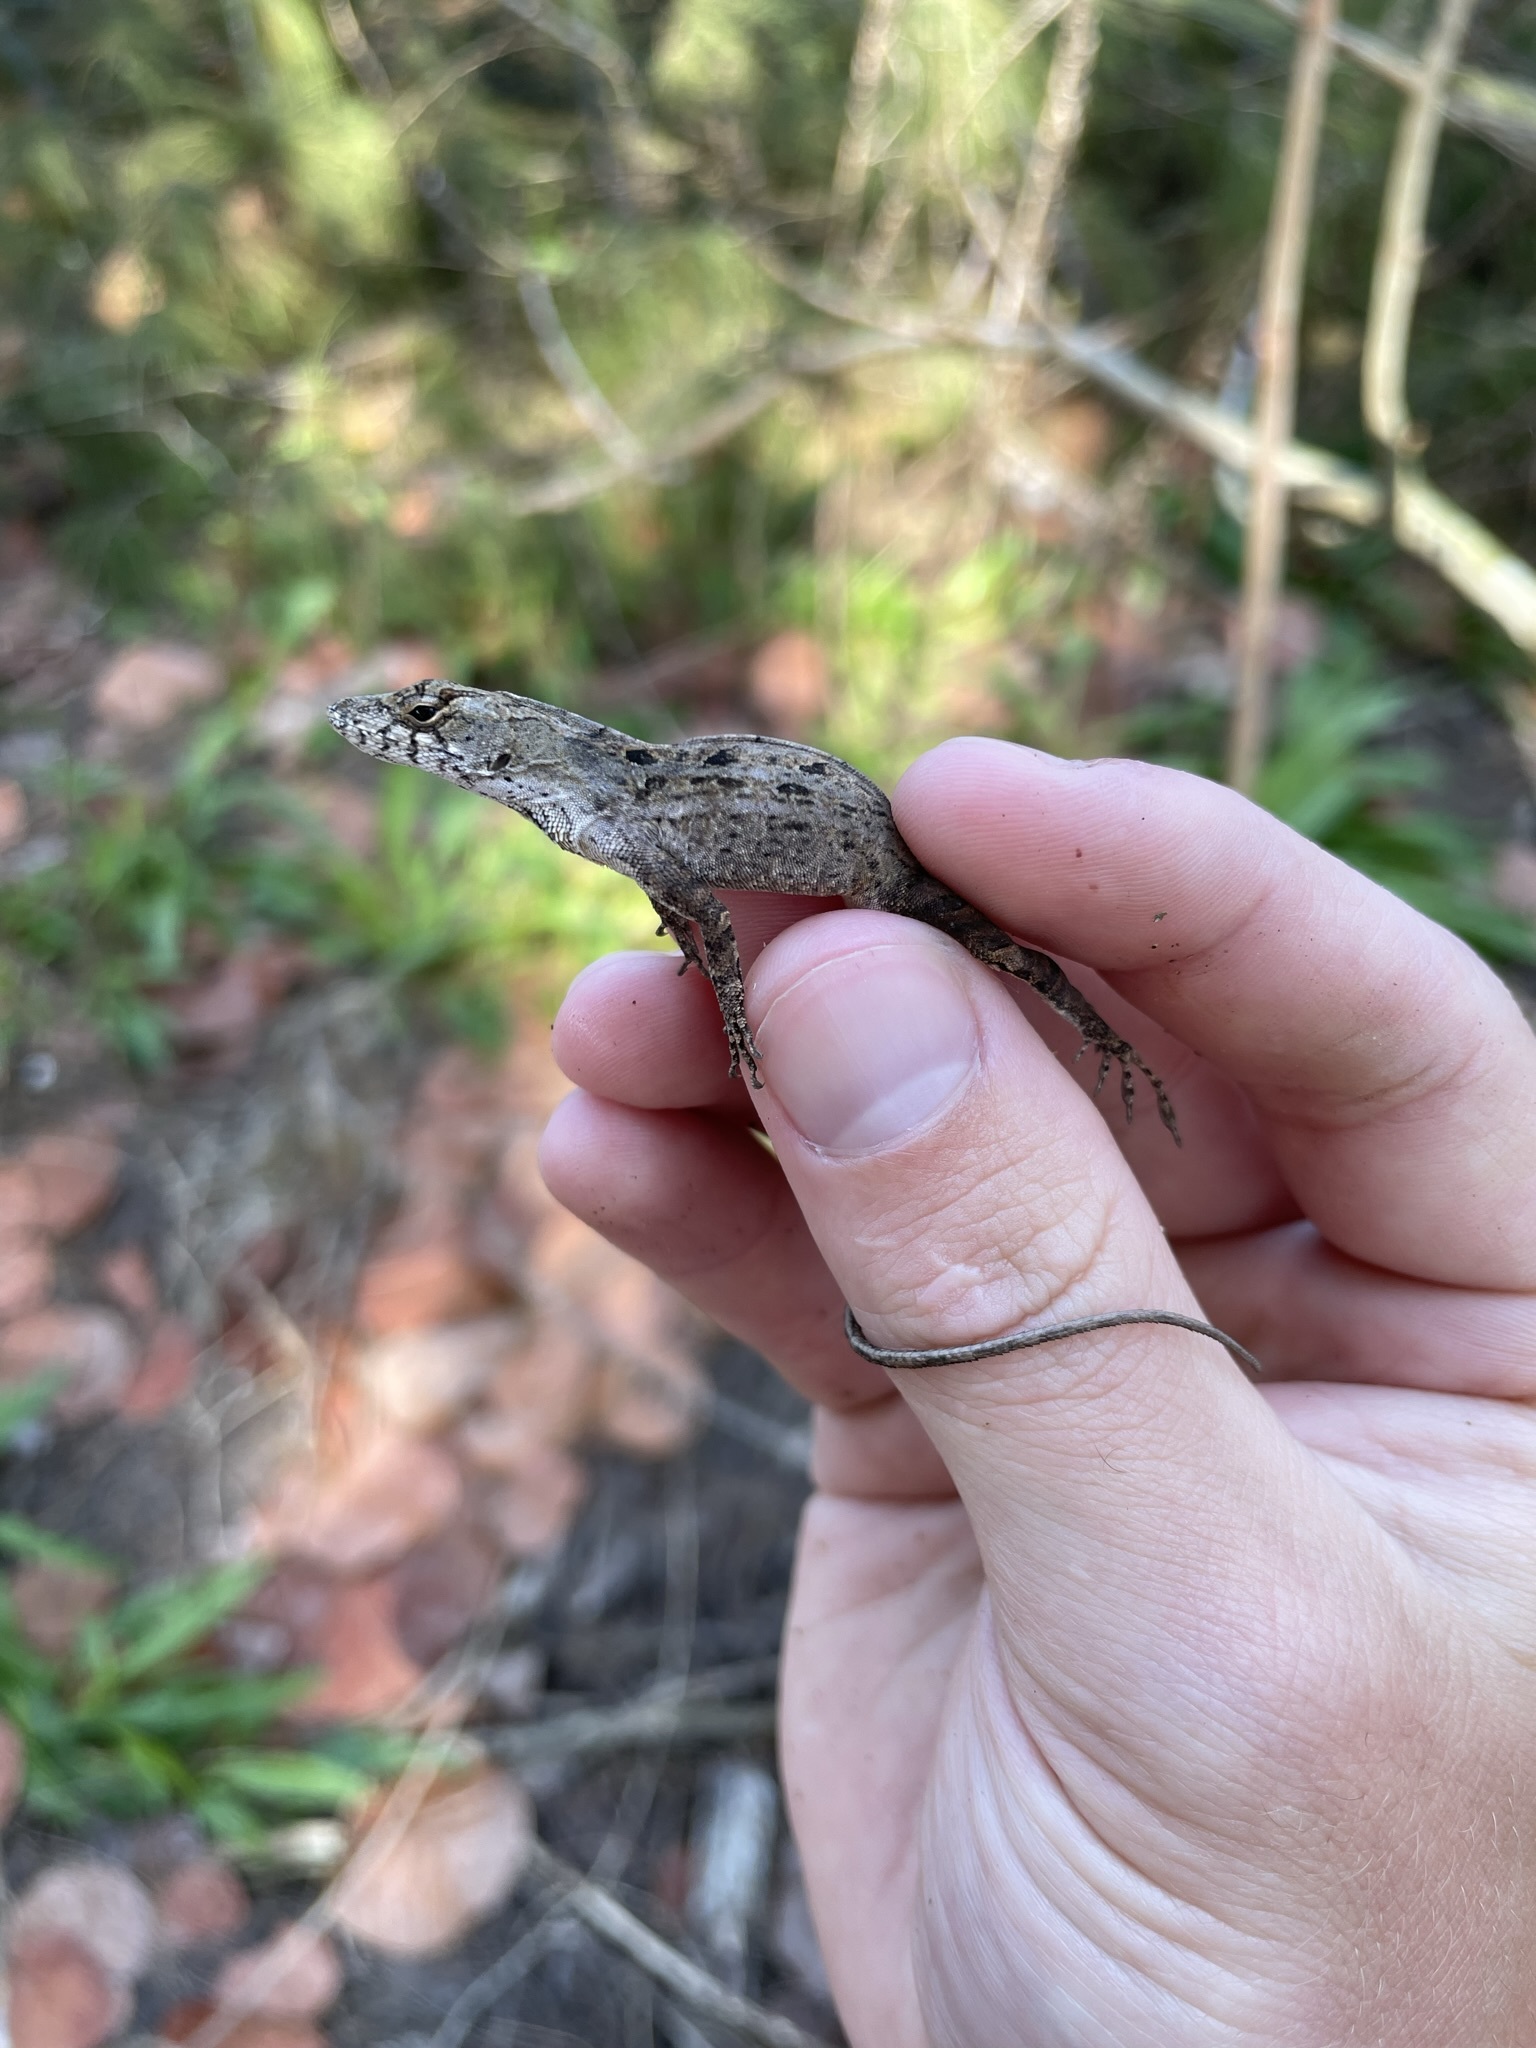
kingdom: Animalia
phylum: Chordata
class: Squamata
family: Dactyloidae
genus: Anolis
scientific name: Anolis sagrei
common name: Brown anole
